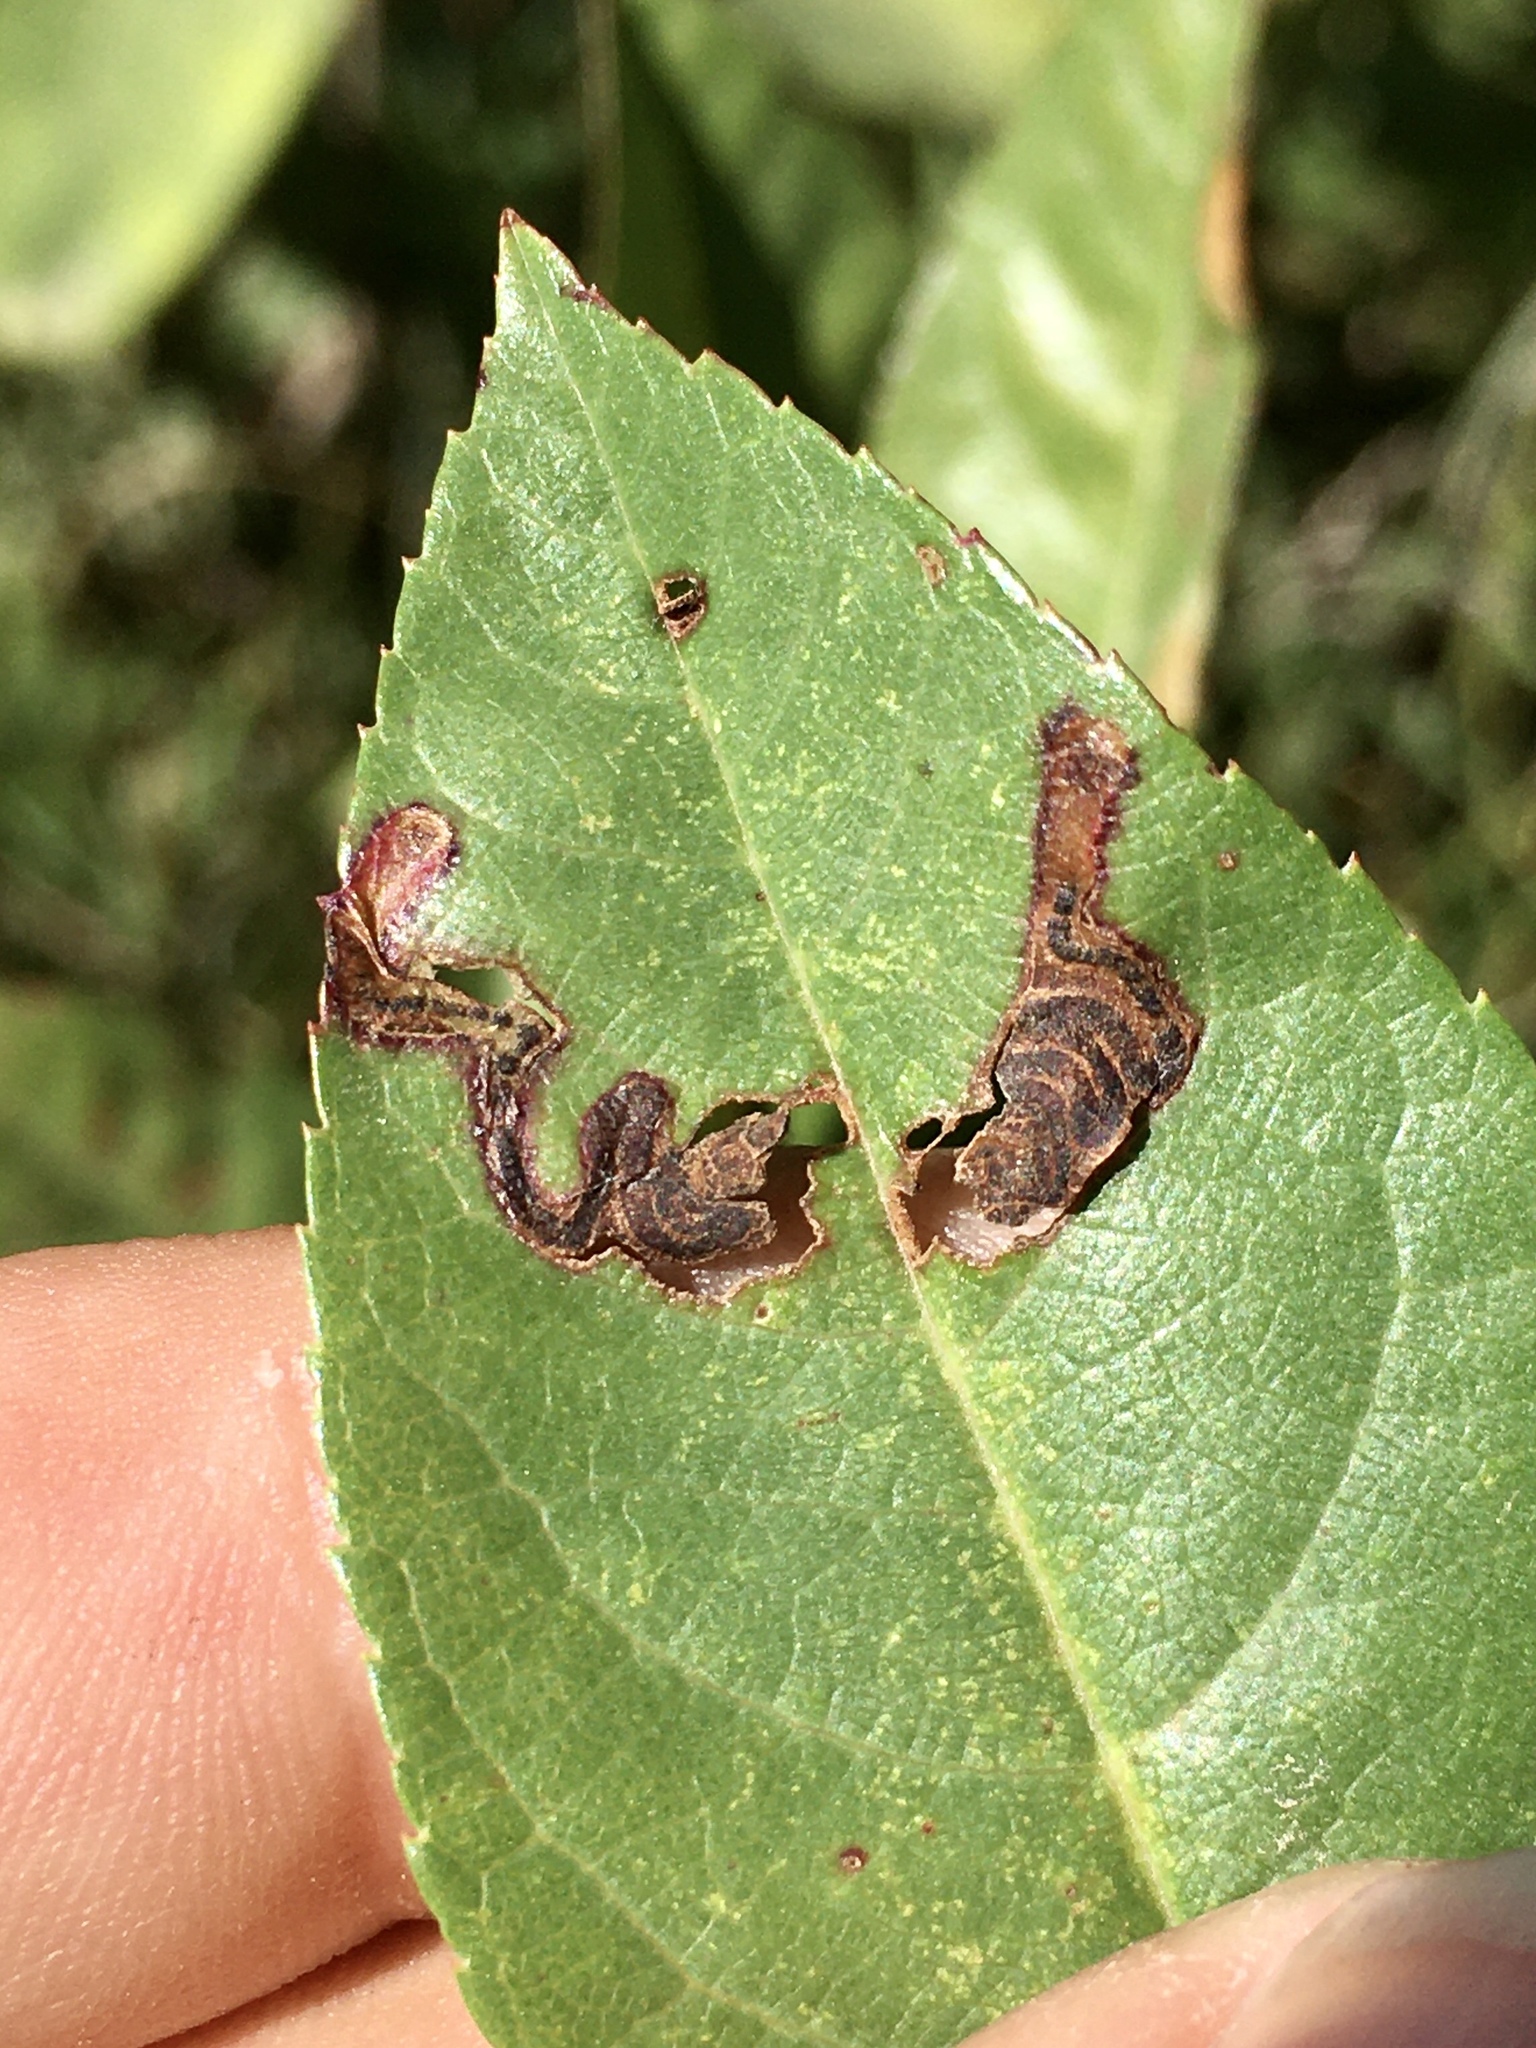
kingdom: Animalia
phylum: Arthropoda
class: Insecta
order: Lepidoptera
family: Nepticulidae
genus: Stigmella
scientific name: Stigmella prunifoliella
